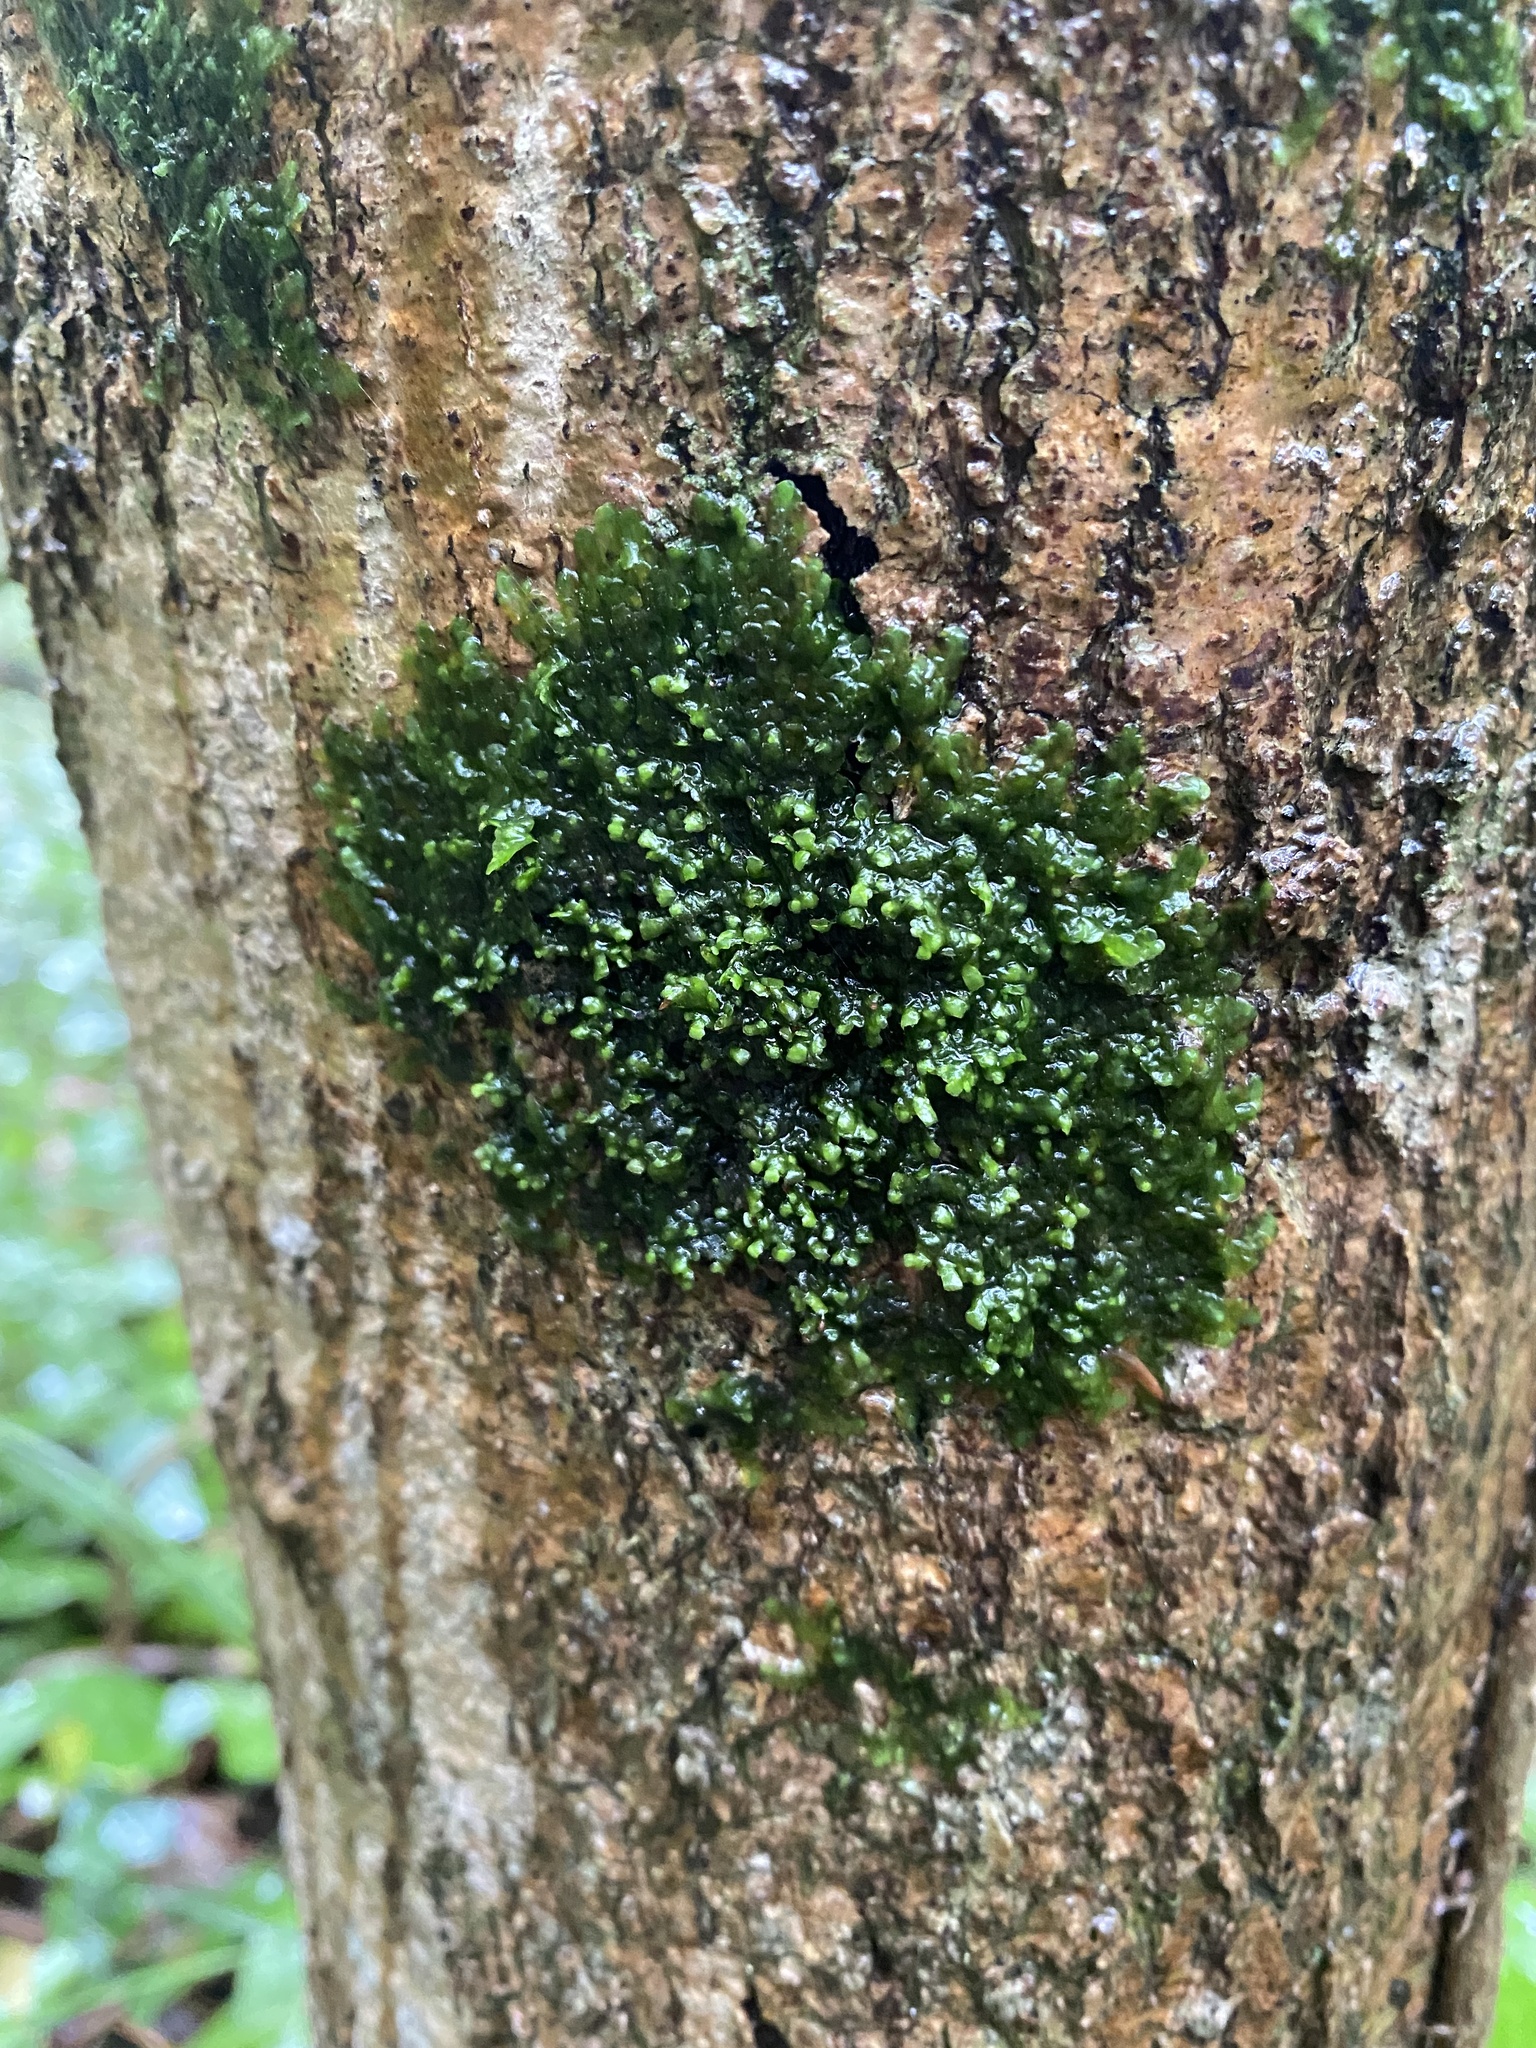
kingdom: Plantae
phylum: Marchantiophyta
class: Jungermanniopsida
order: Porellales
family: Radulaceae
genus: Radula
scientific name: Radula complanata
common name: Flat-leaved scalewort
